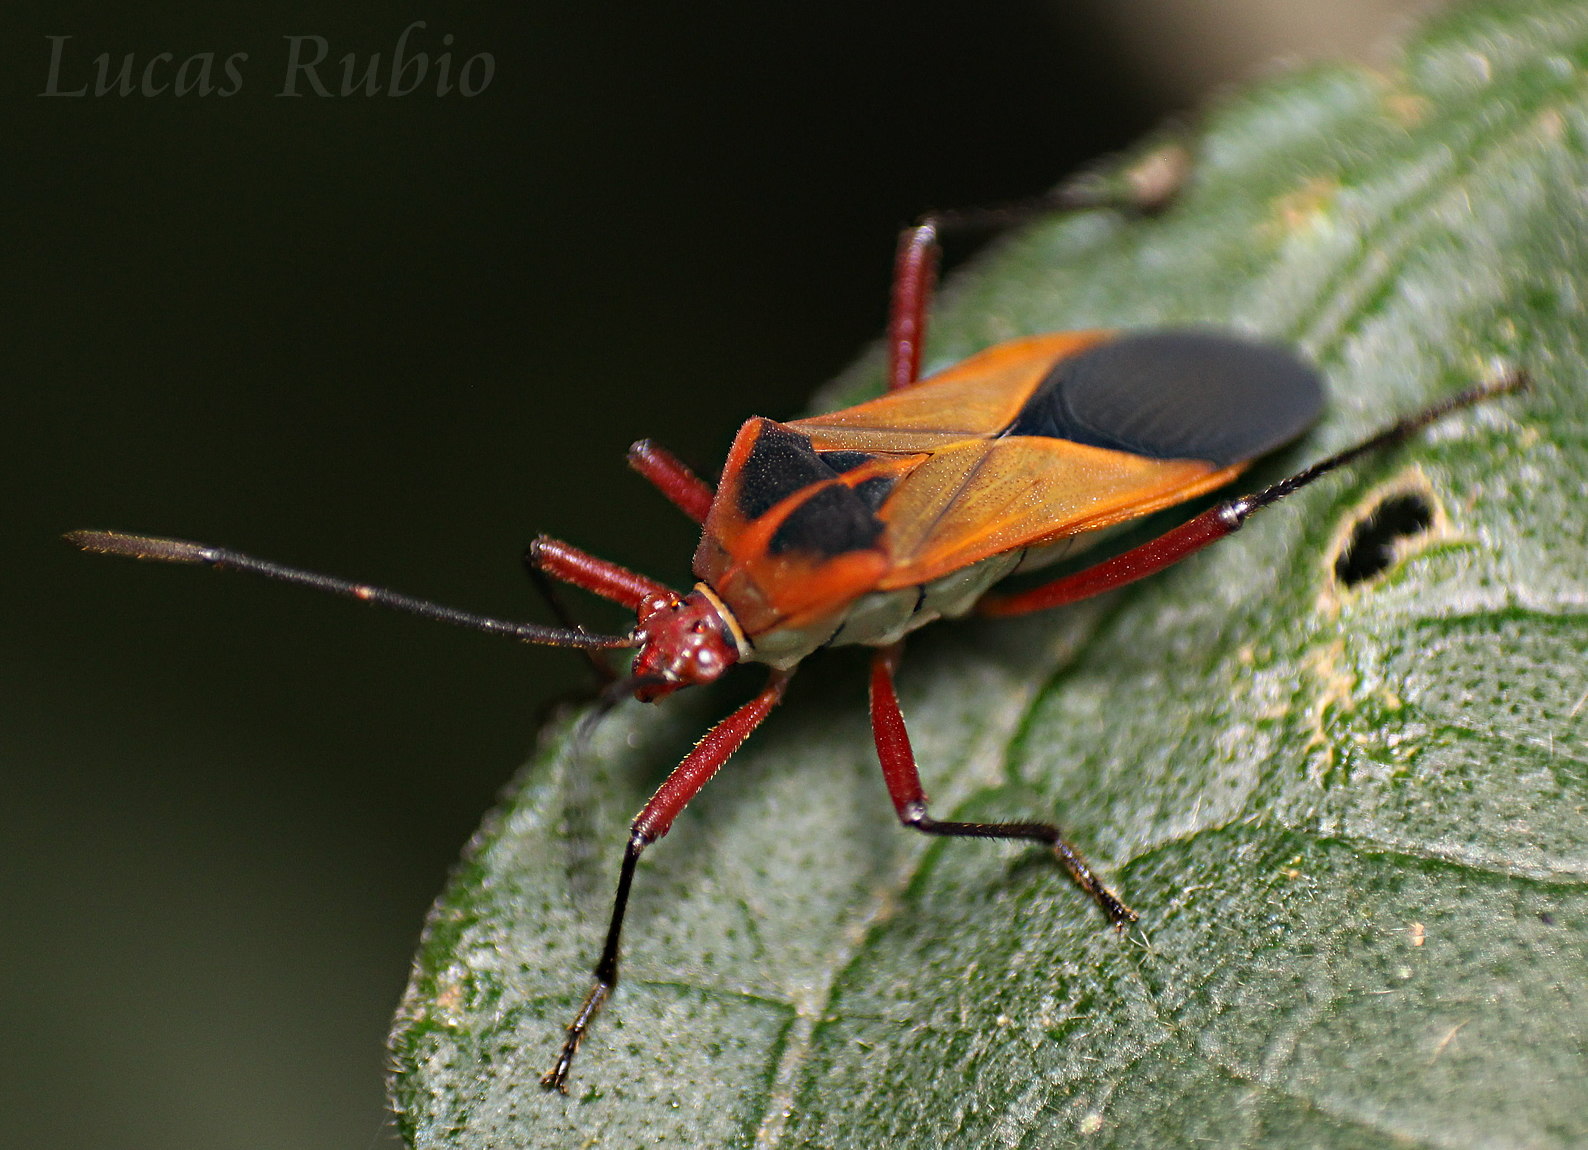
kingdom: Animalia
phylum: Arthropoda
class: Insecta
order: Hemiptera
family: Coreidae
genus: Hypselonotus
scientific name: Hypselonotus bitrianguliger
